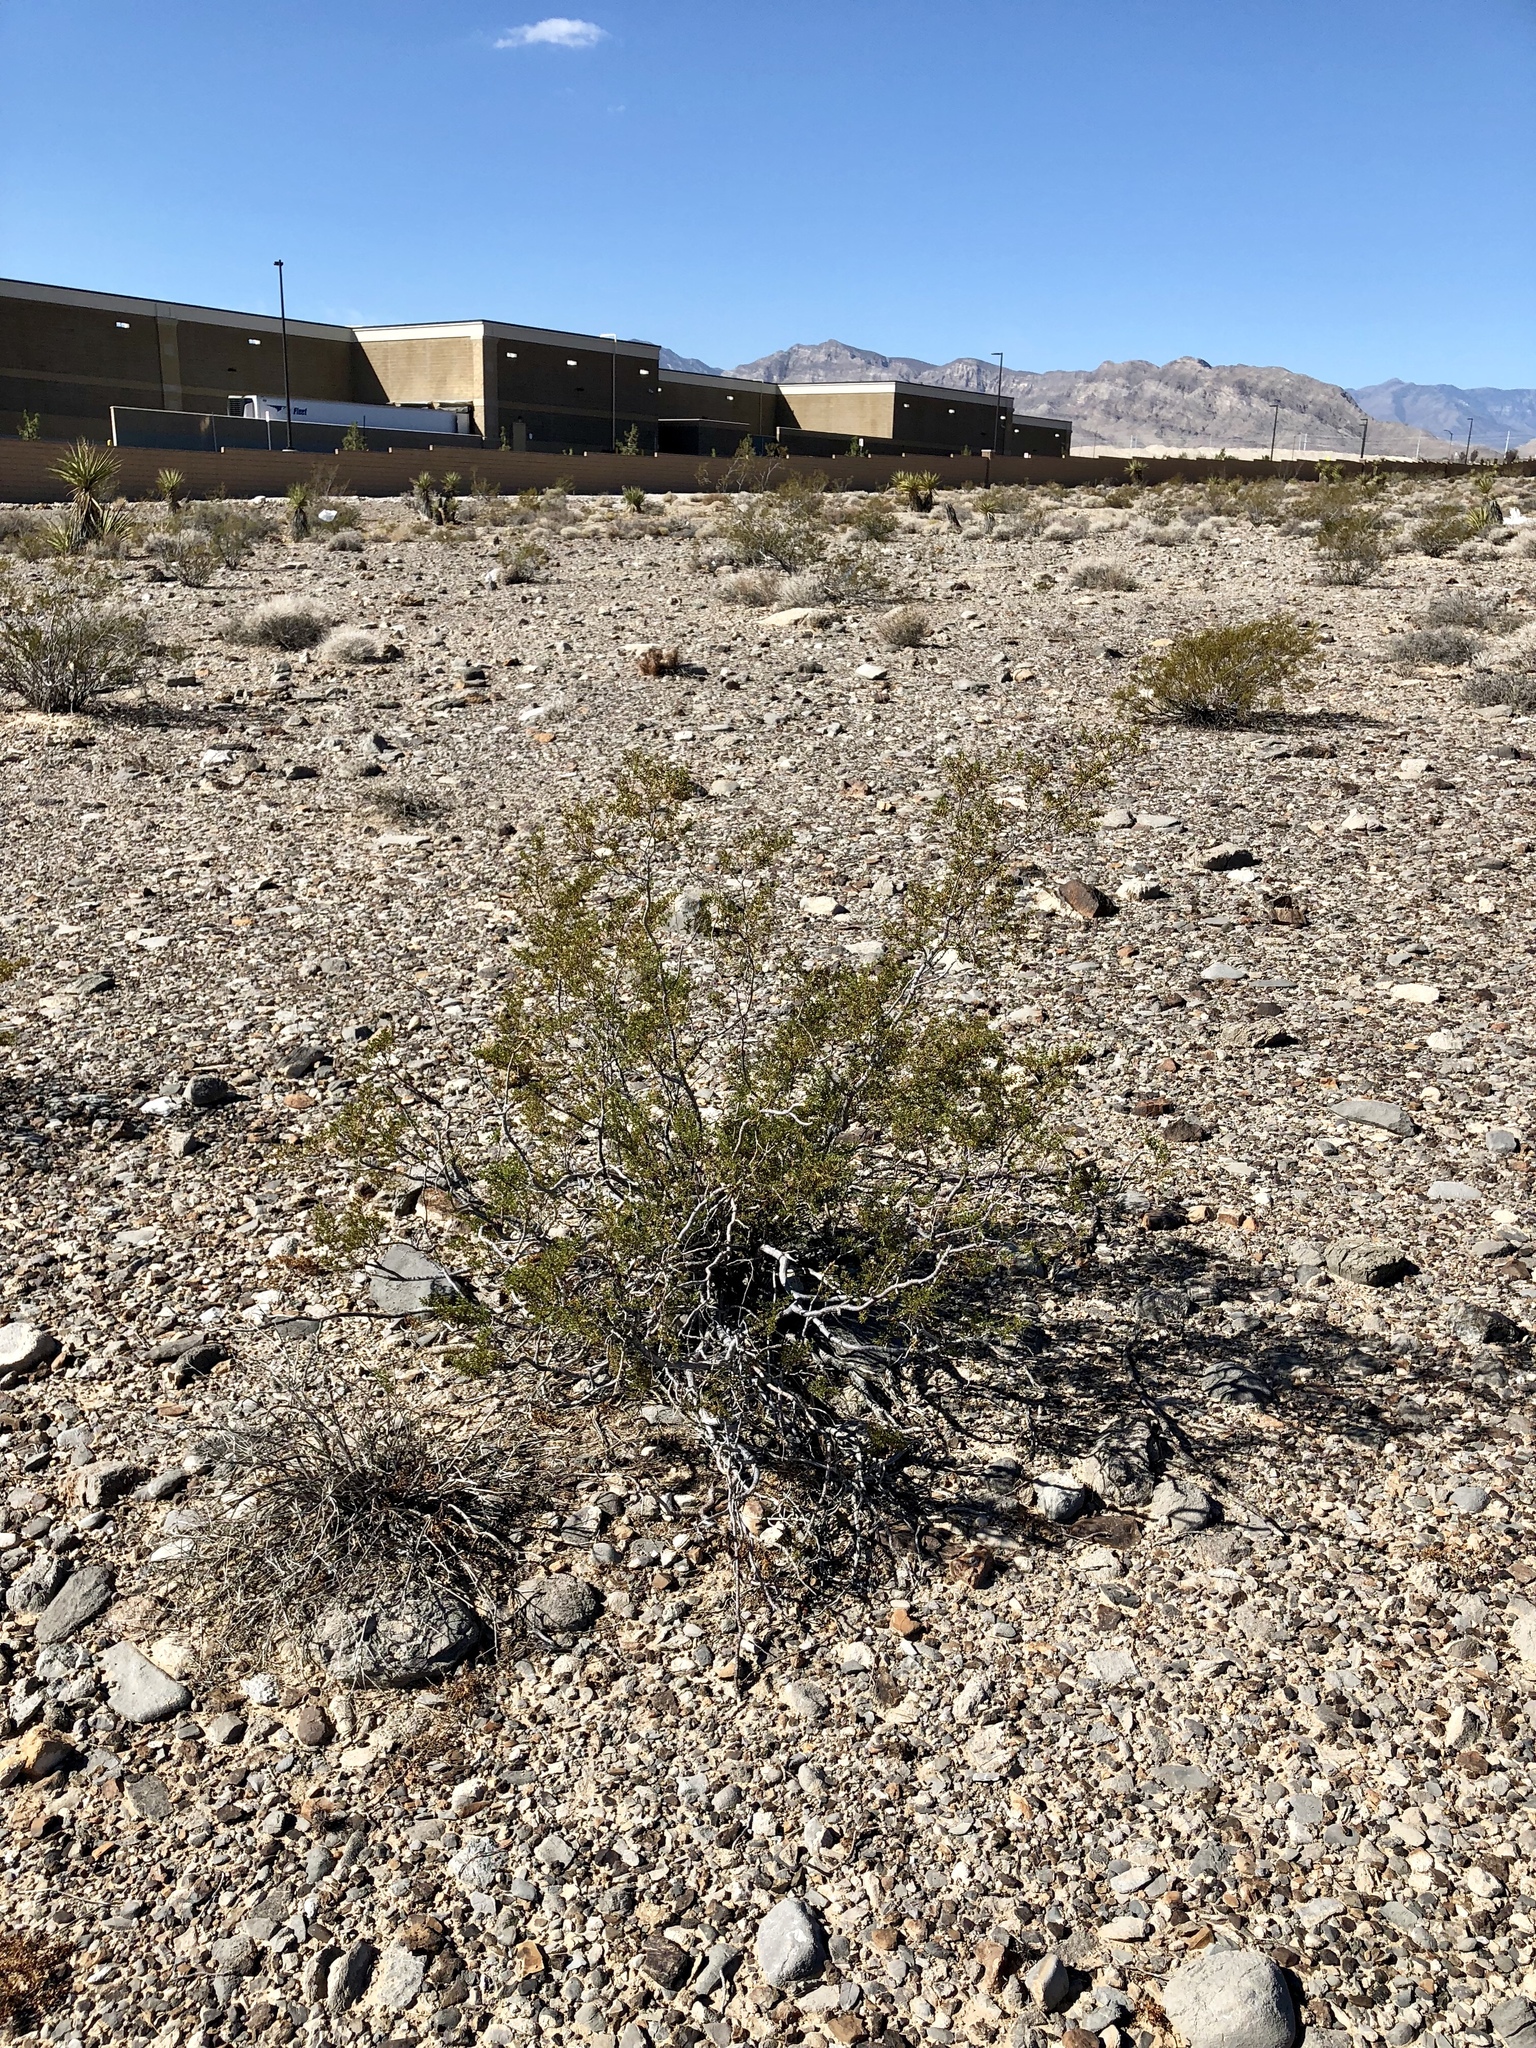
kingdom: Plantae
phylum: Tracheophyta
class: Magnoliopsida
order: Zygophyllales
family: Zygophyllaceae
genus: Larrea
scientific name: Larrea tridentata
